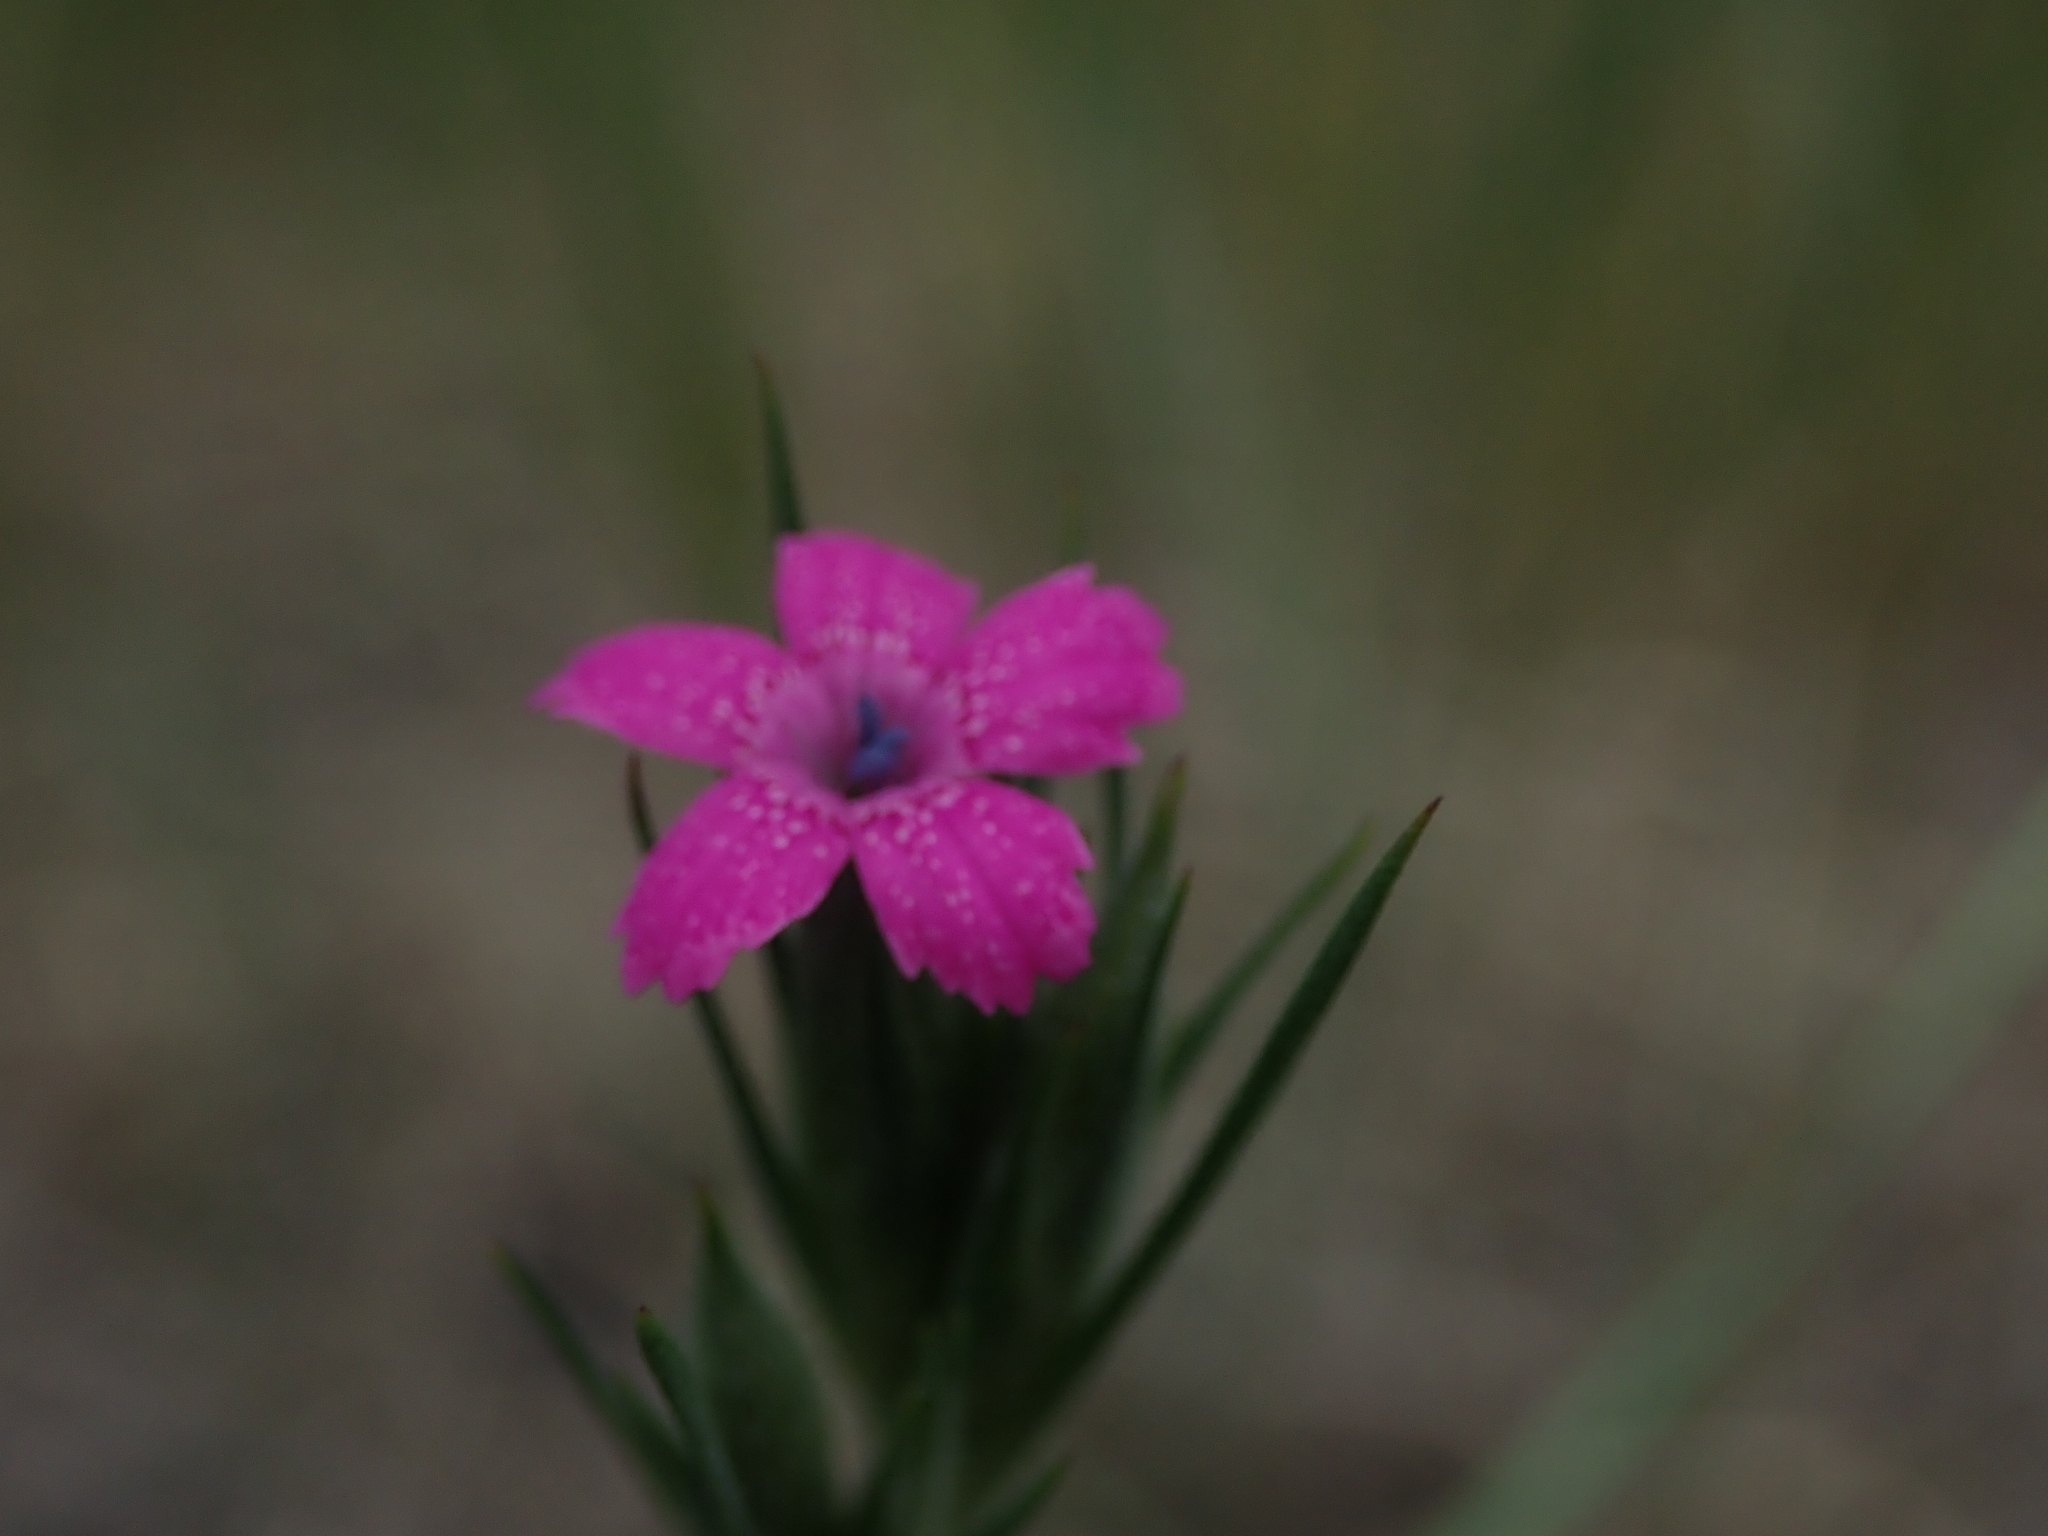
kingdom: Plantae
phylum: Tracheophyta
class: Magnoliopsida
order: Caryophyllales
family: Caryophyllaceae
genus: Dianthus
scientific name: Dianthus armeria
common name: Deptford pink
